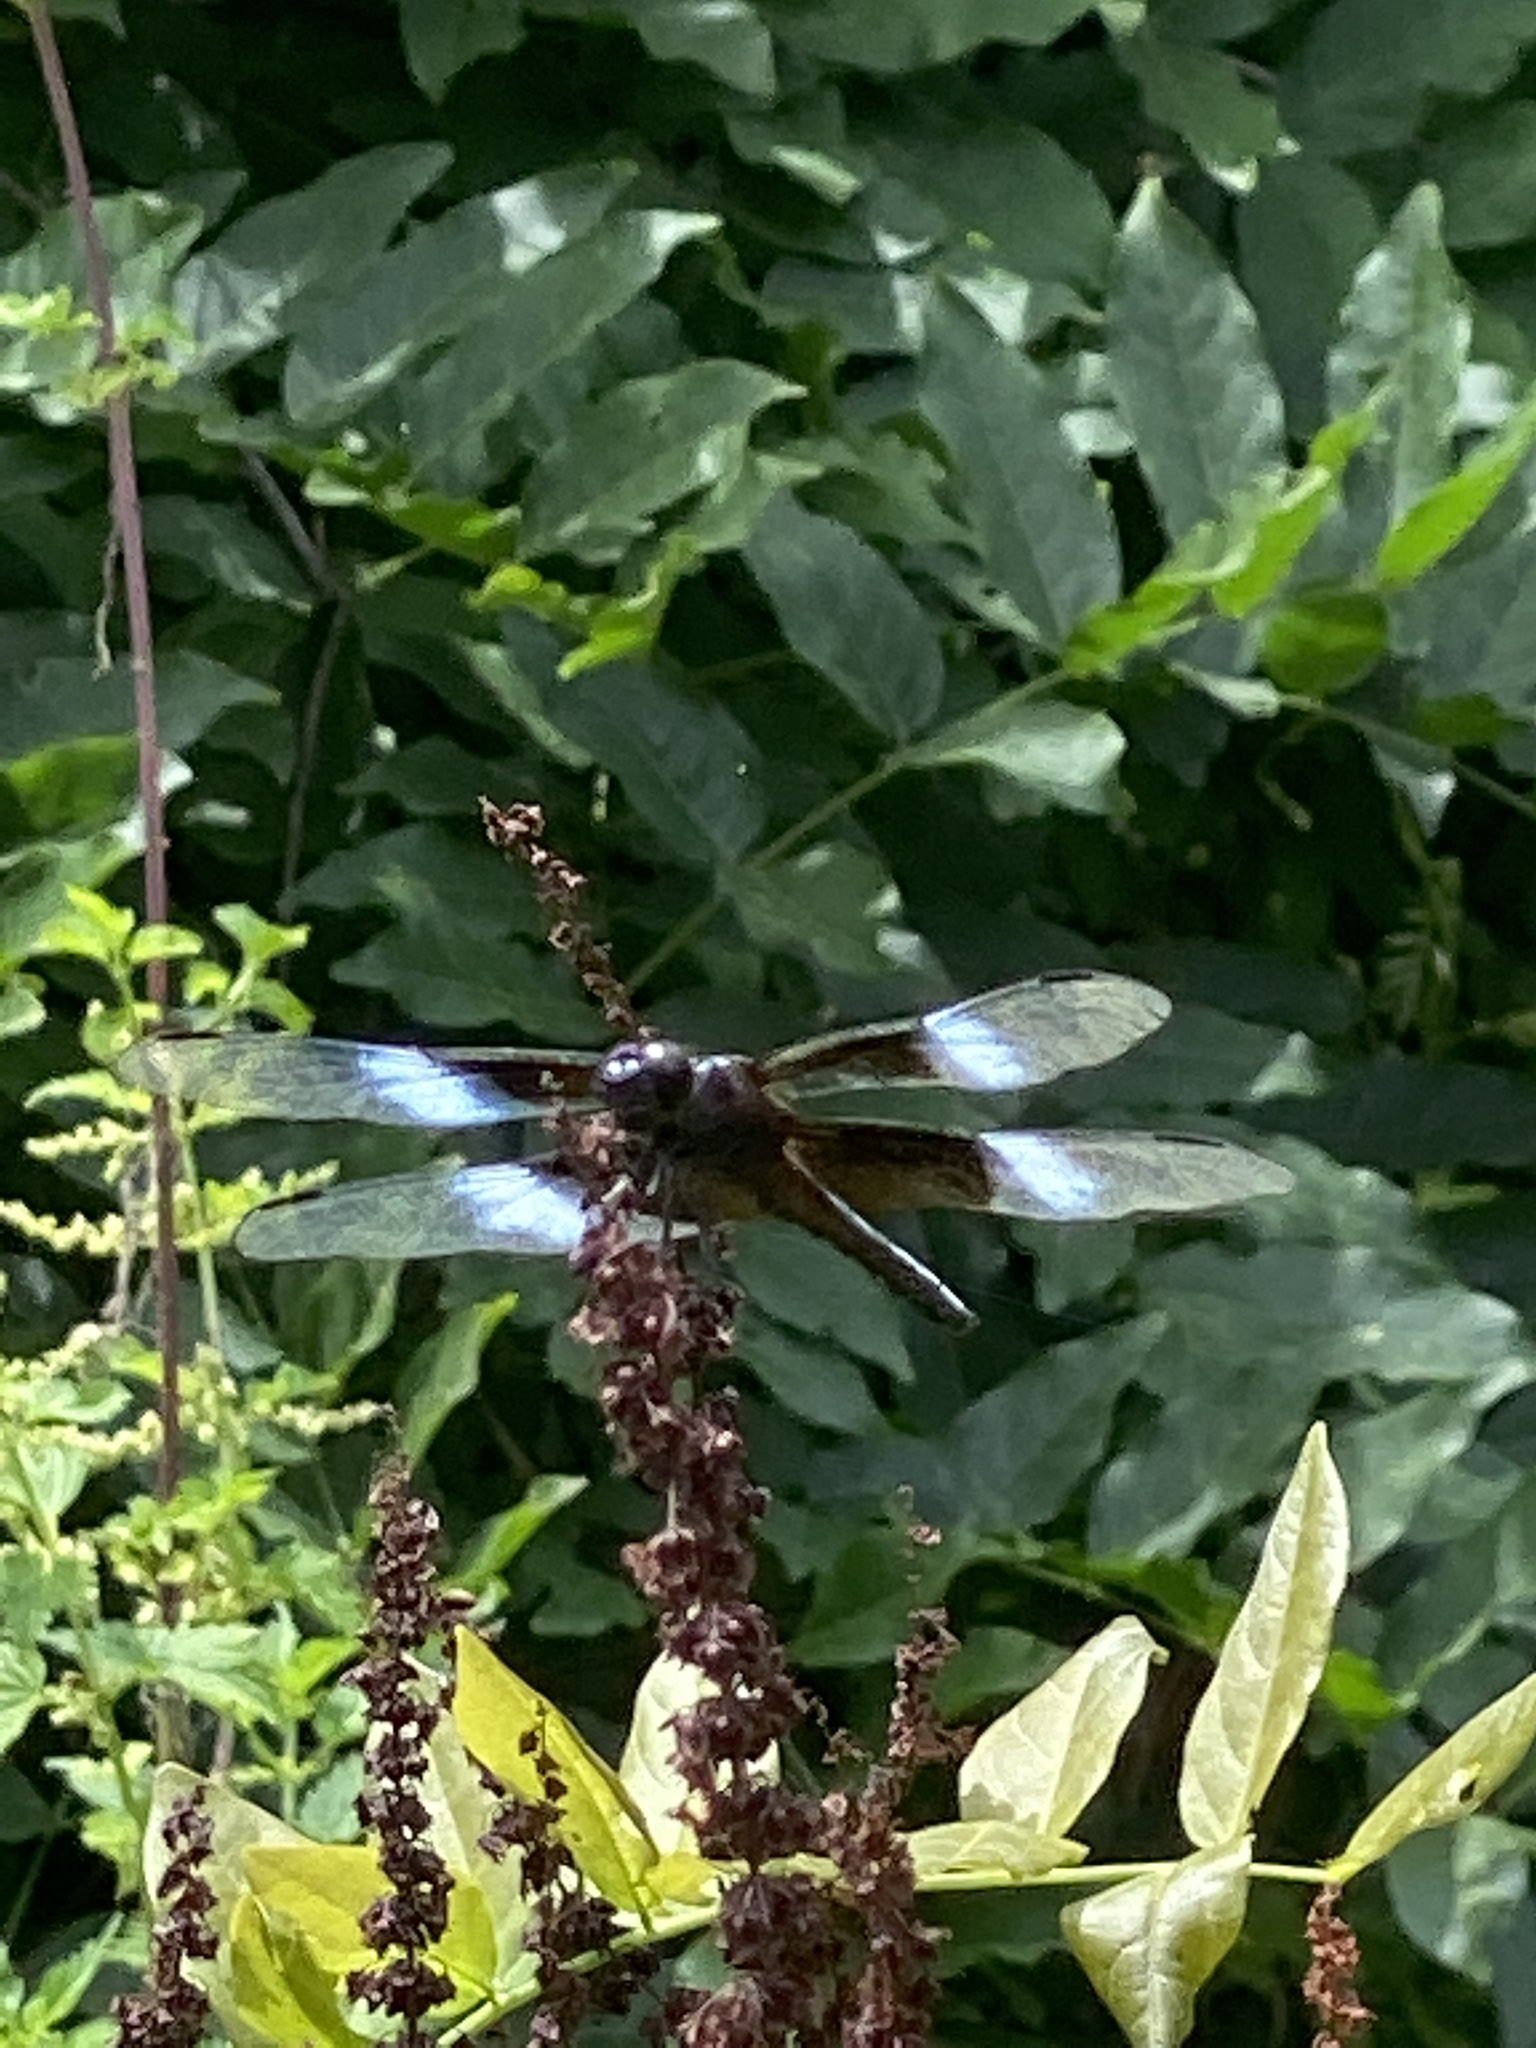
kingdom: Animalia
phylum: Arthropoda
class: Insecta
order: Odonata
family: Libellulidae
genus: Libellula
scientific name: Libellula luctuosa
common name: Widow skimmer
